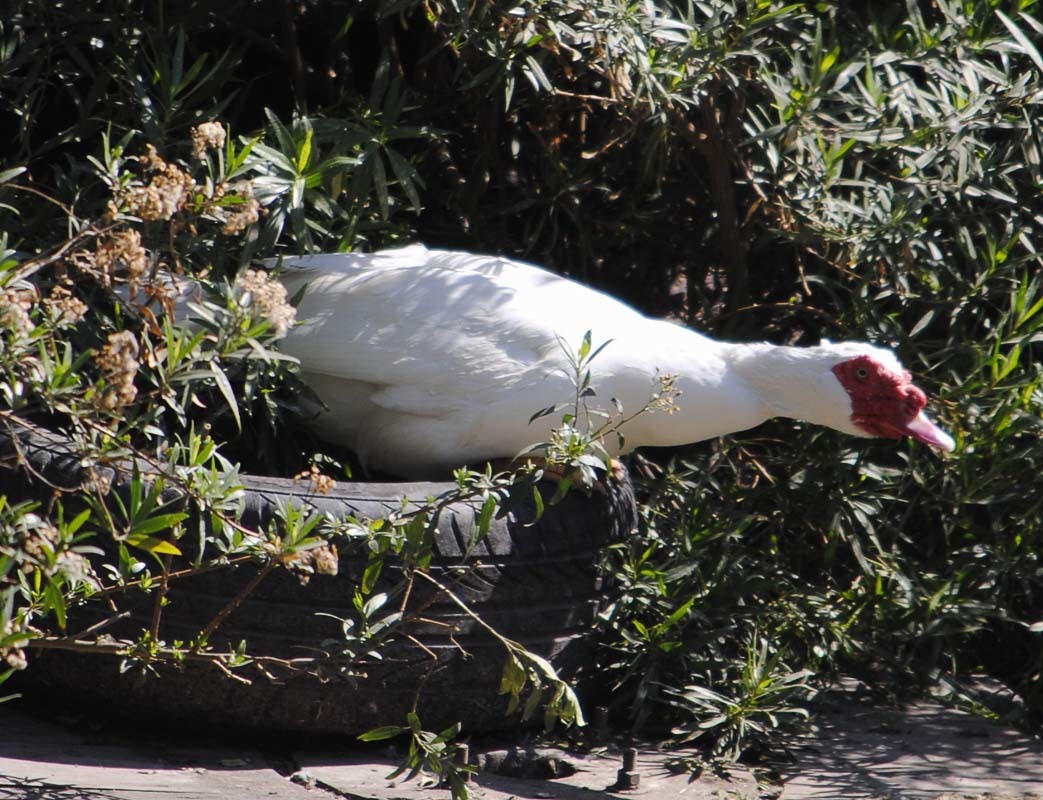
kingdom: Animalia
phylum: Chordata
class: Aves
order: Anseriformes
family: Anatidae
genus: Cairina
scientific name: Cairina moschata
